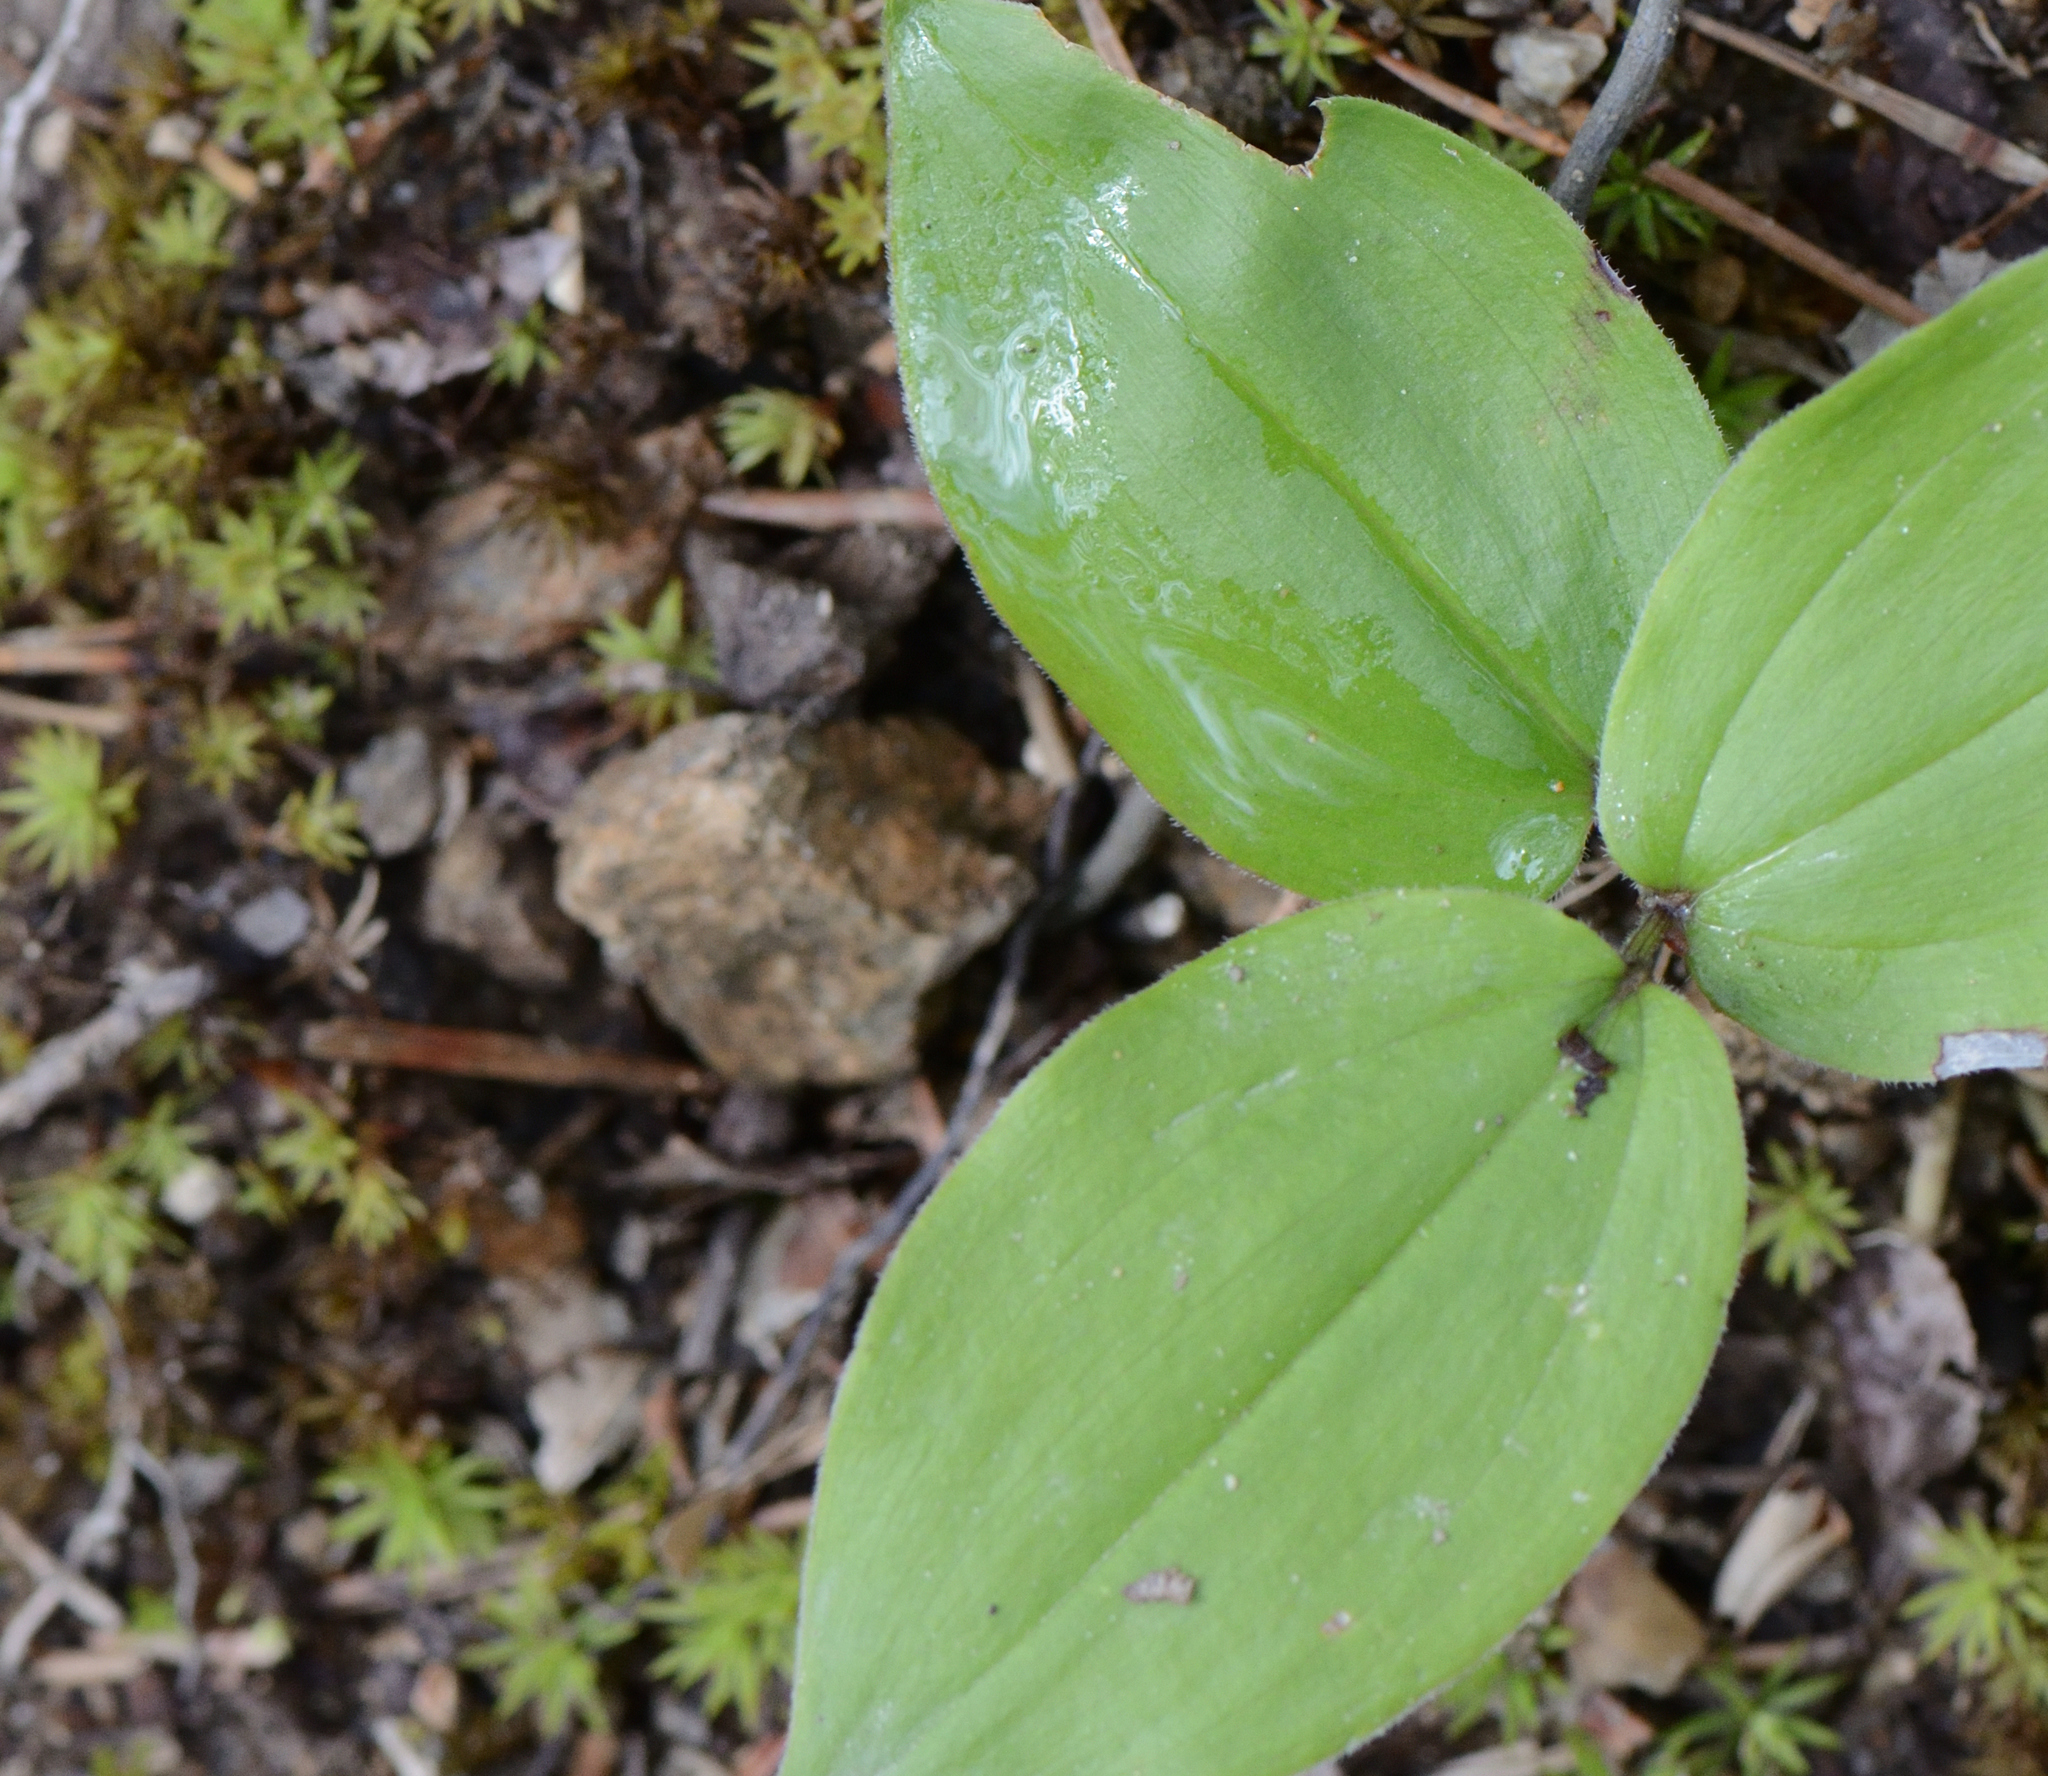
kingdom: Plantae
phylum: Tracheophyta
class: Liliopsida
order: Asparagales
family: Asparagaceae
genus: Maianthemum
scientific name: Maianthemum racemosum
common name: False spikenard
